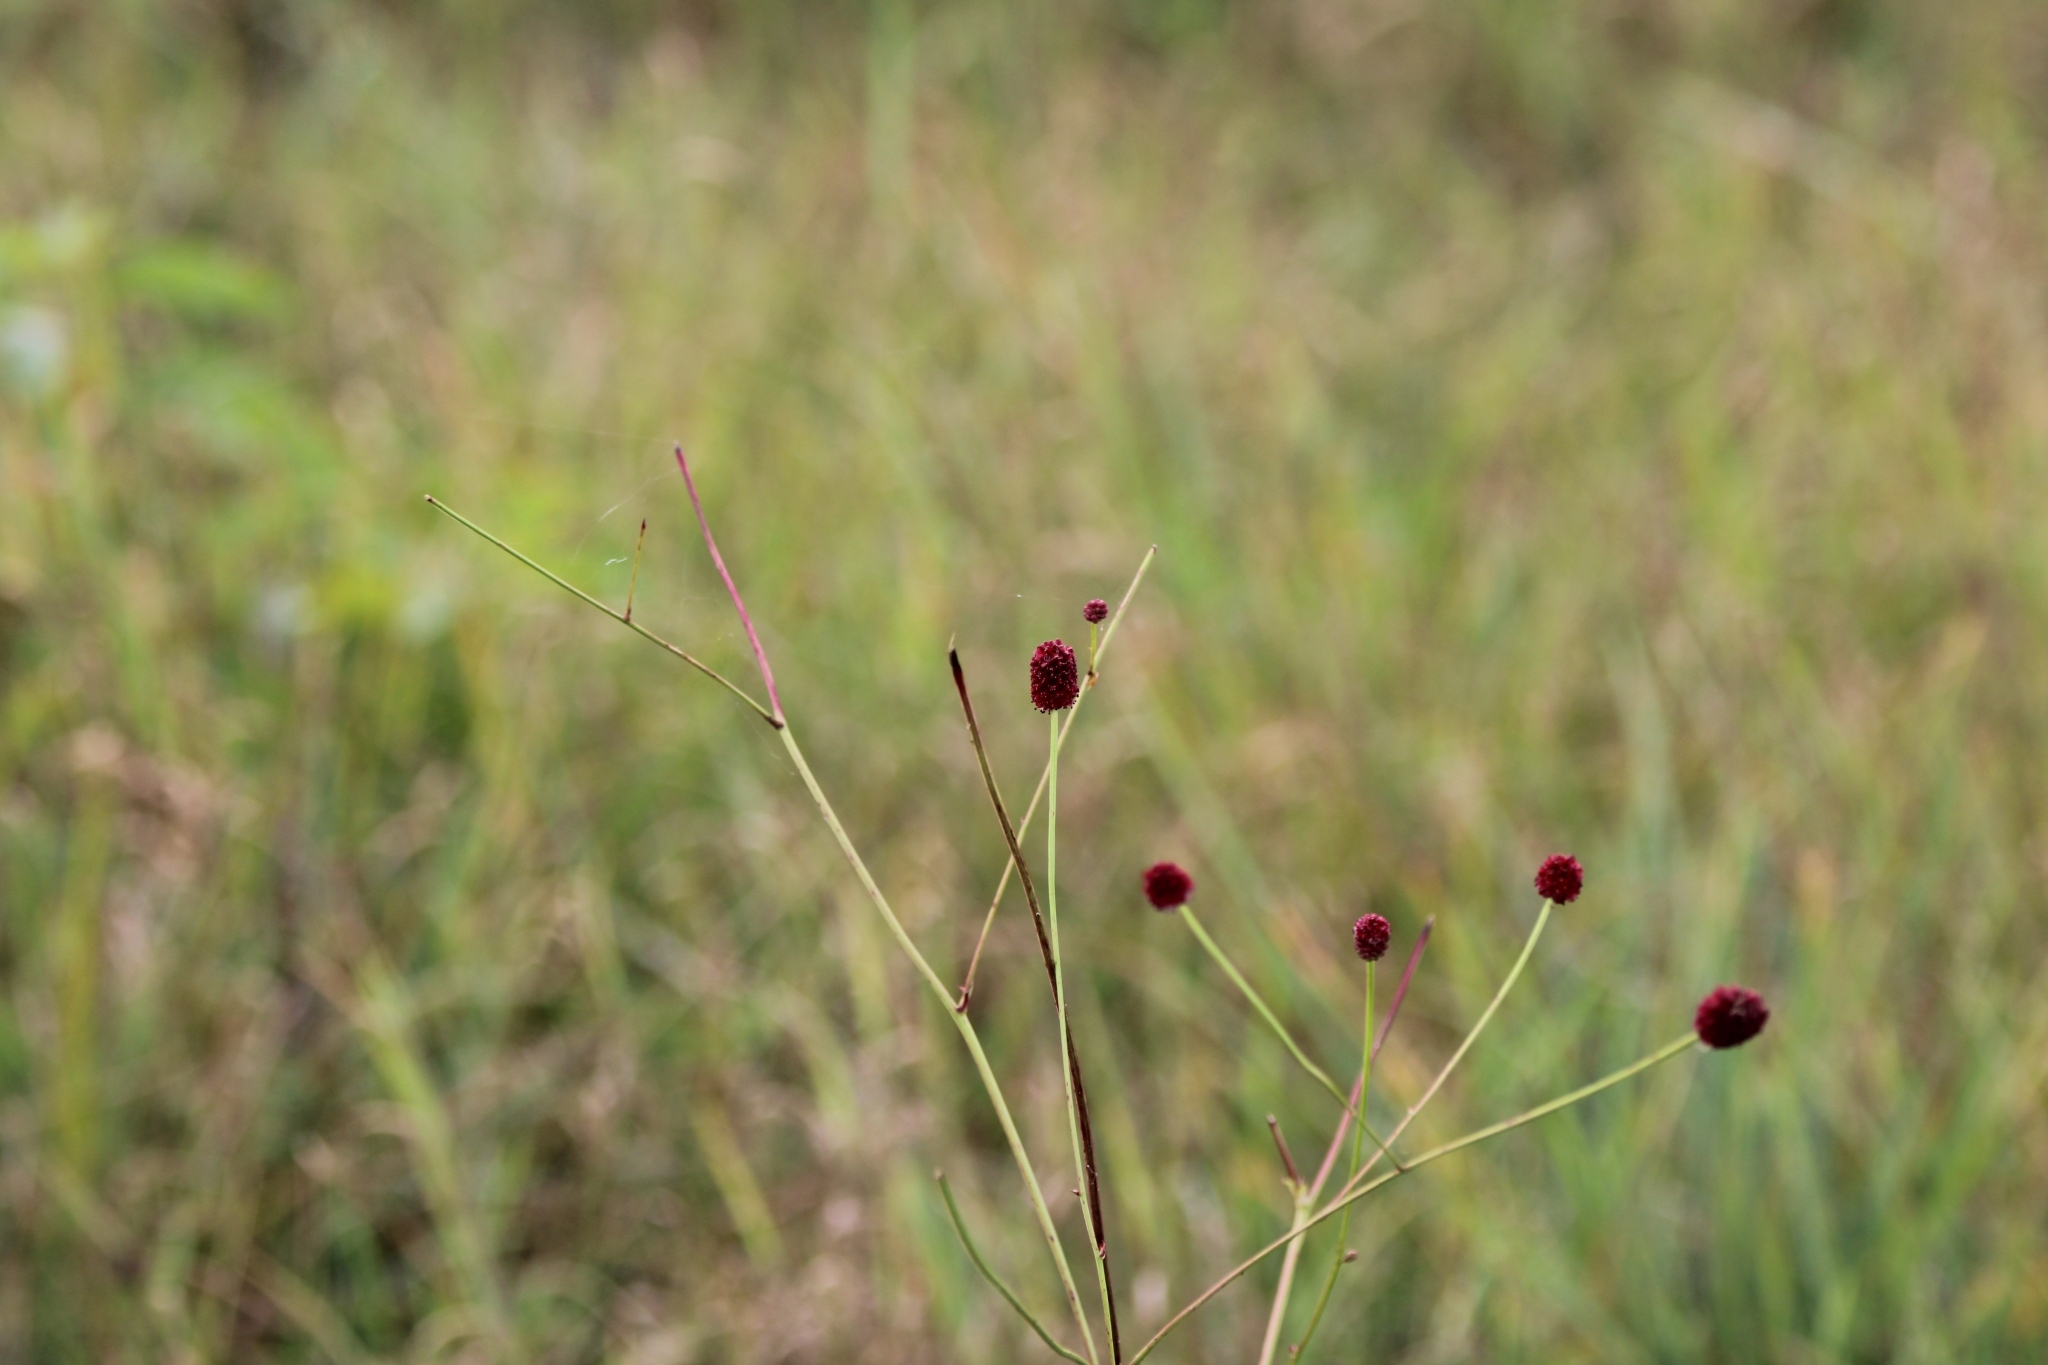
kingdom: Plantae
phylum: Tracheophyta
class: Magnoliopsida
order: Rosales
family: Rosaceae
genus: Sanguisorba
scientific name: Sanguisorba officinalis
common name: Great burnet
